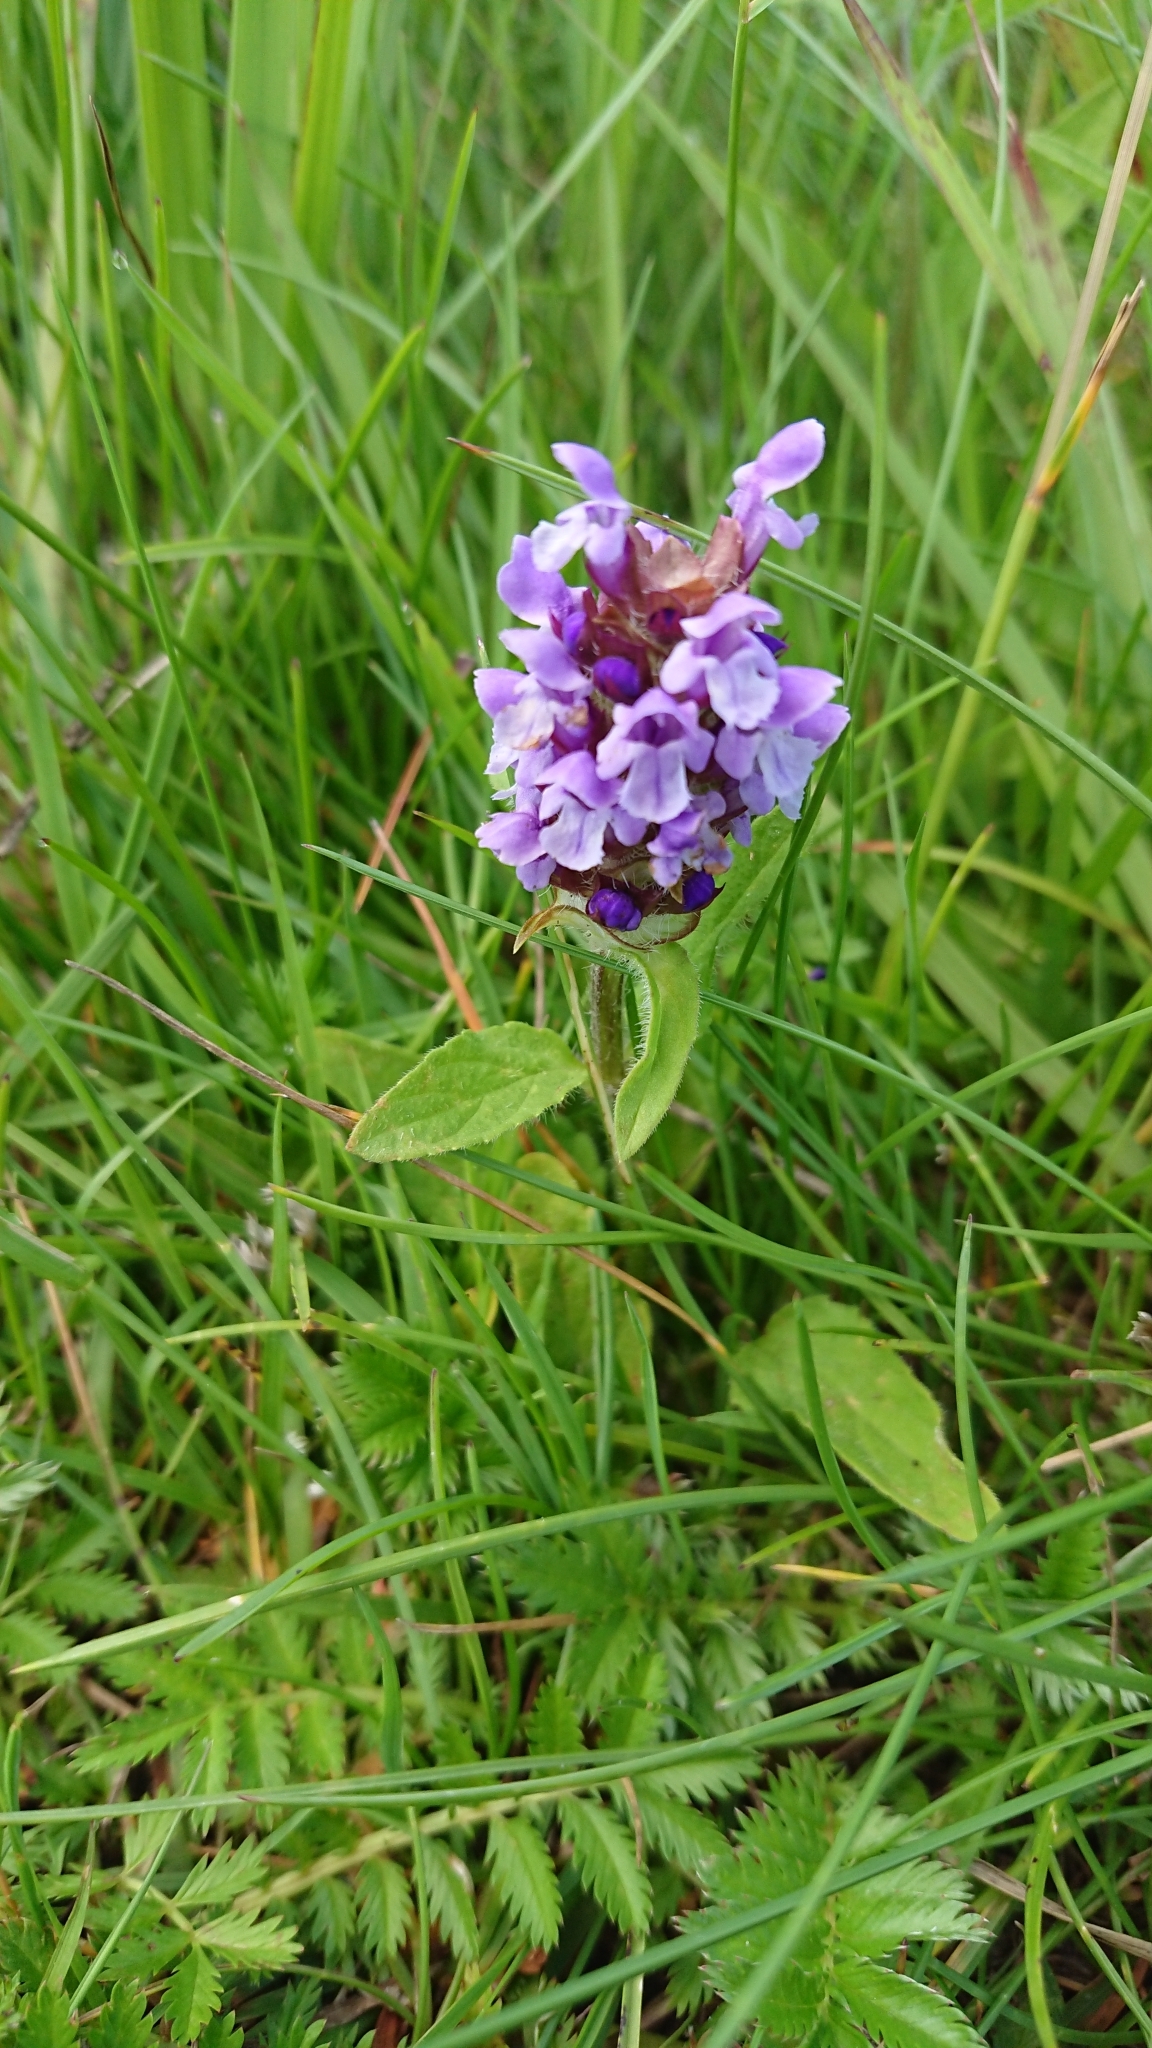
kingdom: Plantae
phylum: Tracheophyta
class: Magnoliopsida
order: Lamiales
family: Lamiaceae
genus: Prunella
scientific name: Prunella vulgaris
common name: Heal-all
